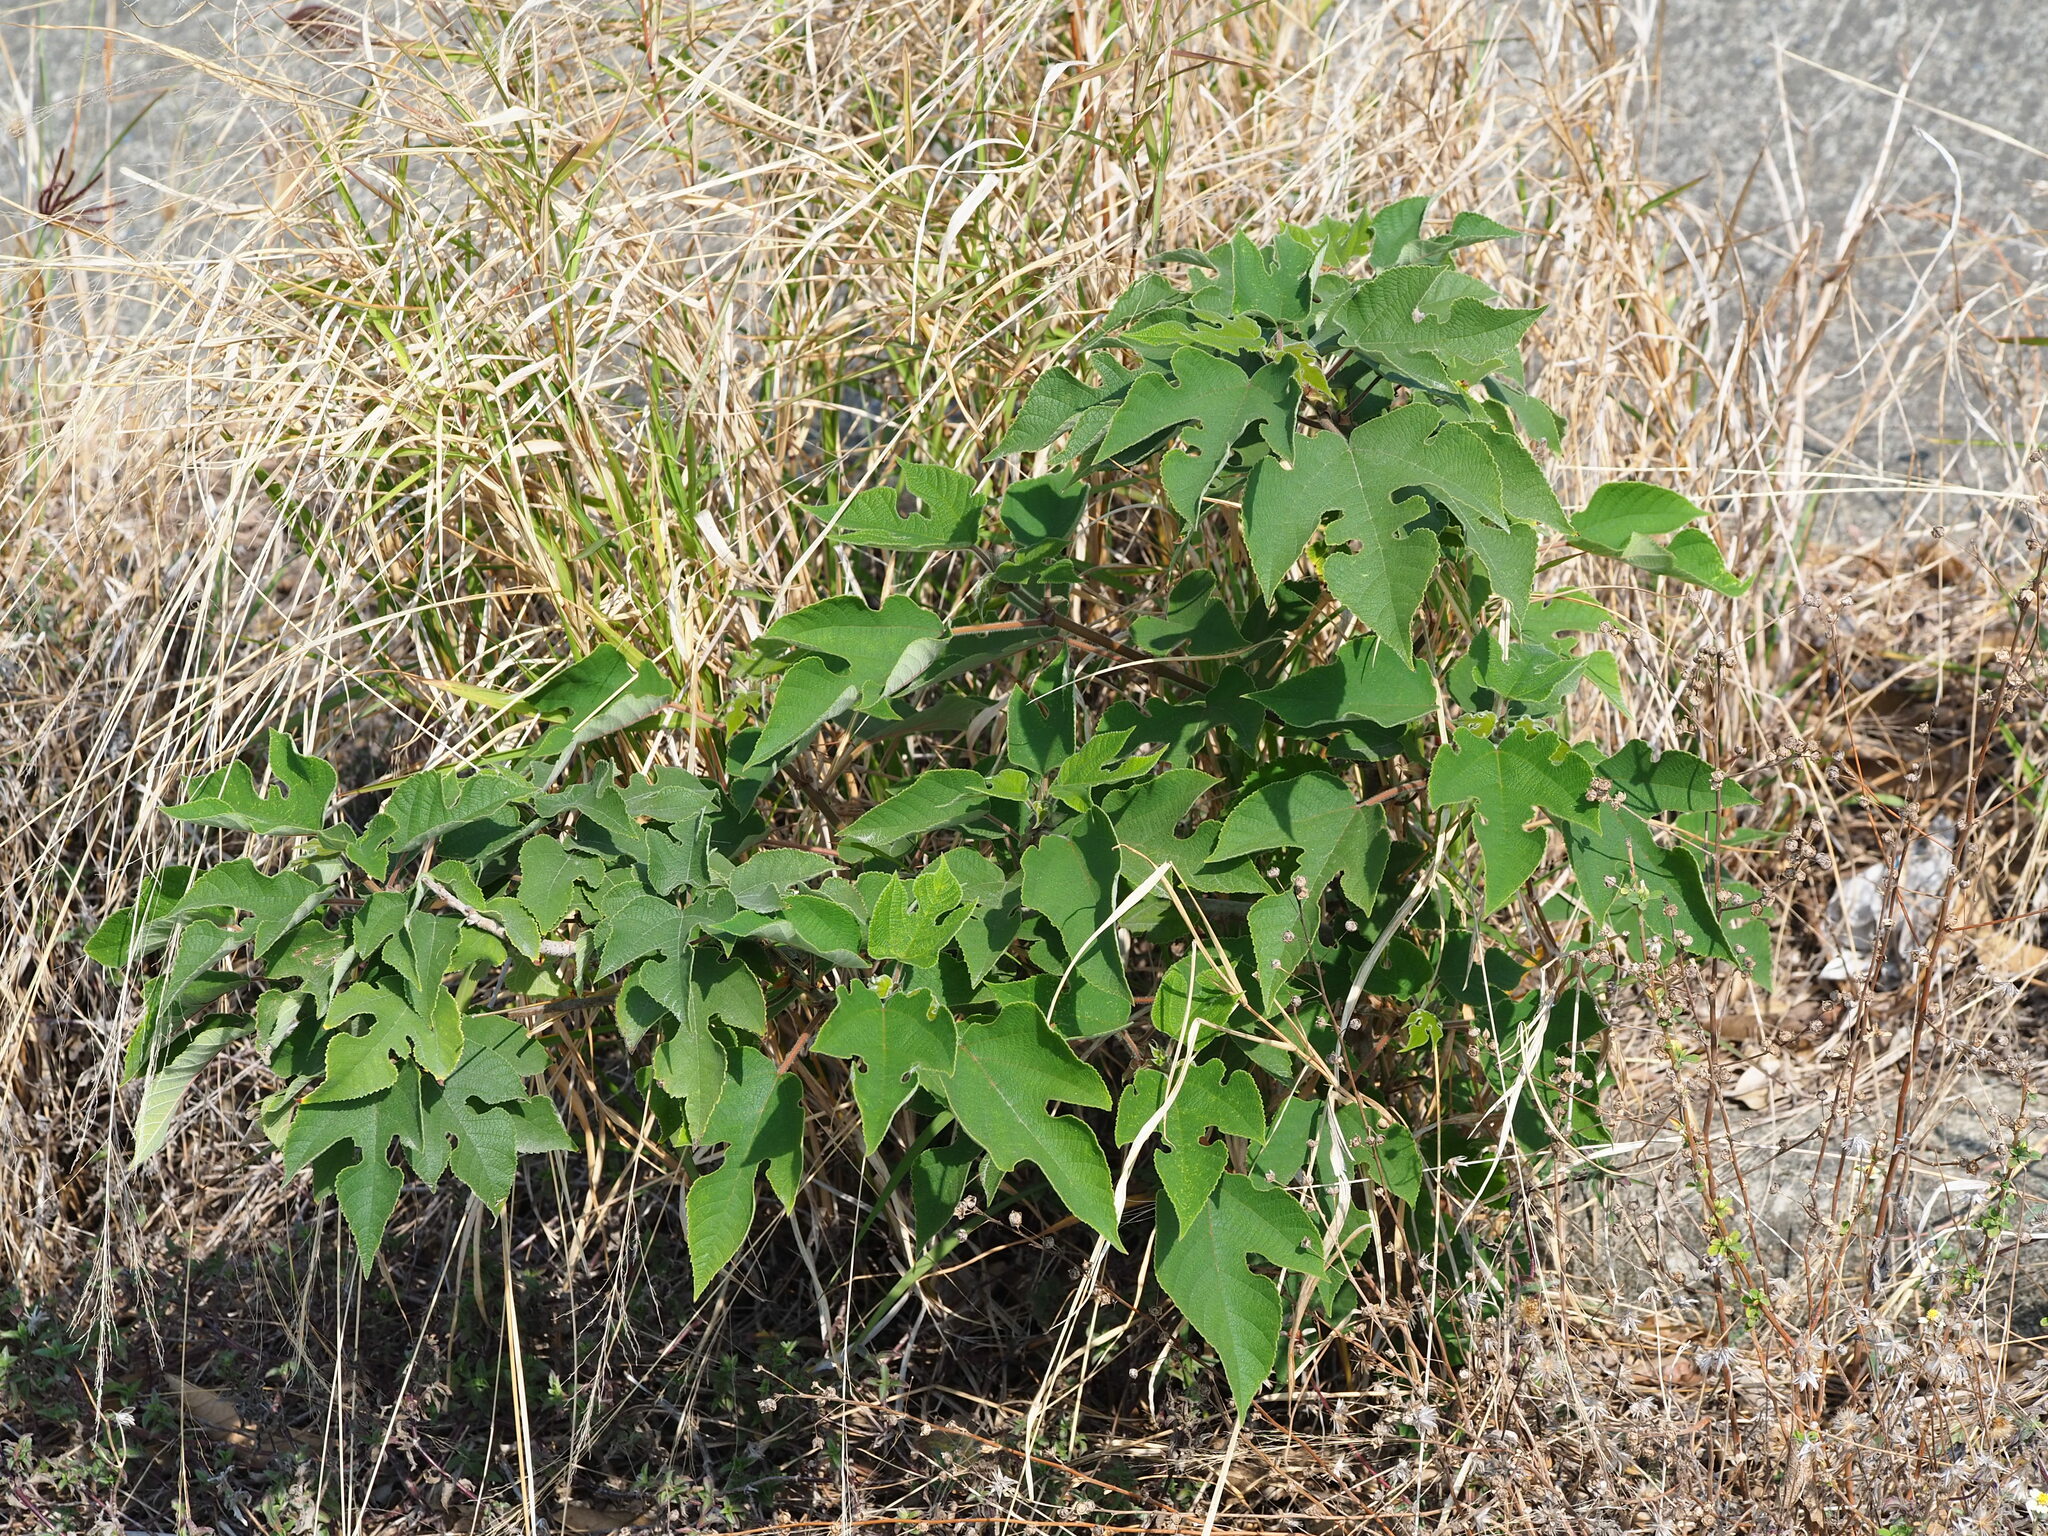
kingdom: Plantae
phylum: Tracheophyta
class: Magnoliopsida
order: Rosales
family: Moraceae
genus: Broussonetia
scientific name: Broussonetia papyrifera
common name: Paper mulberry
